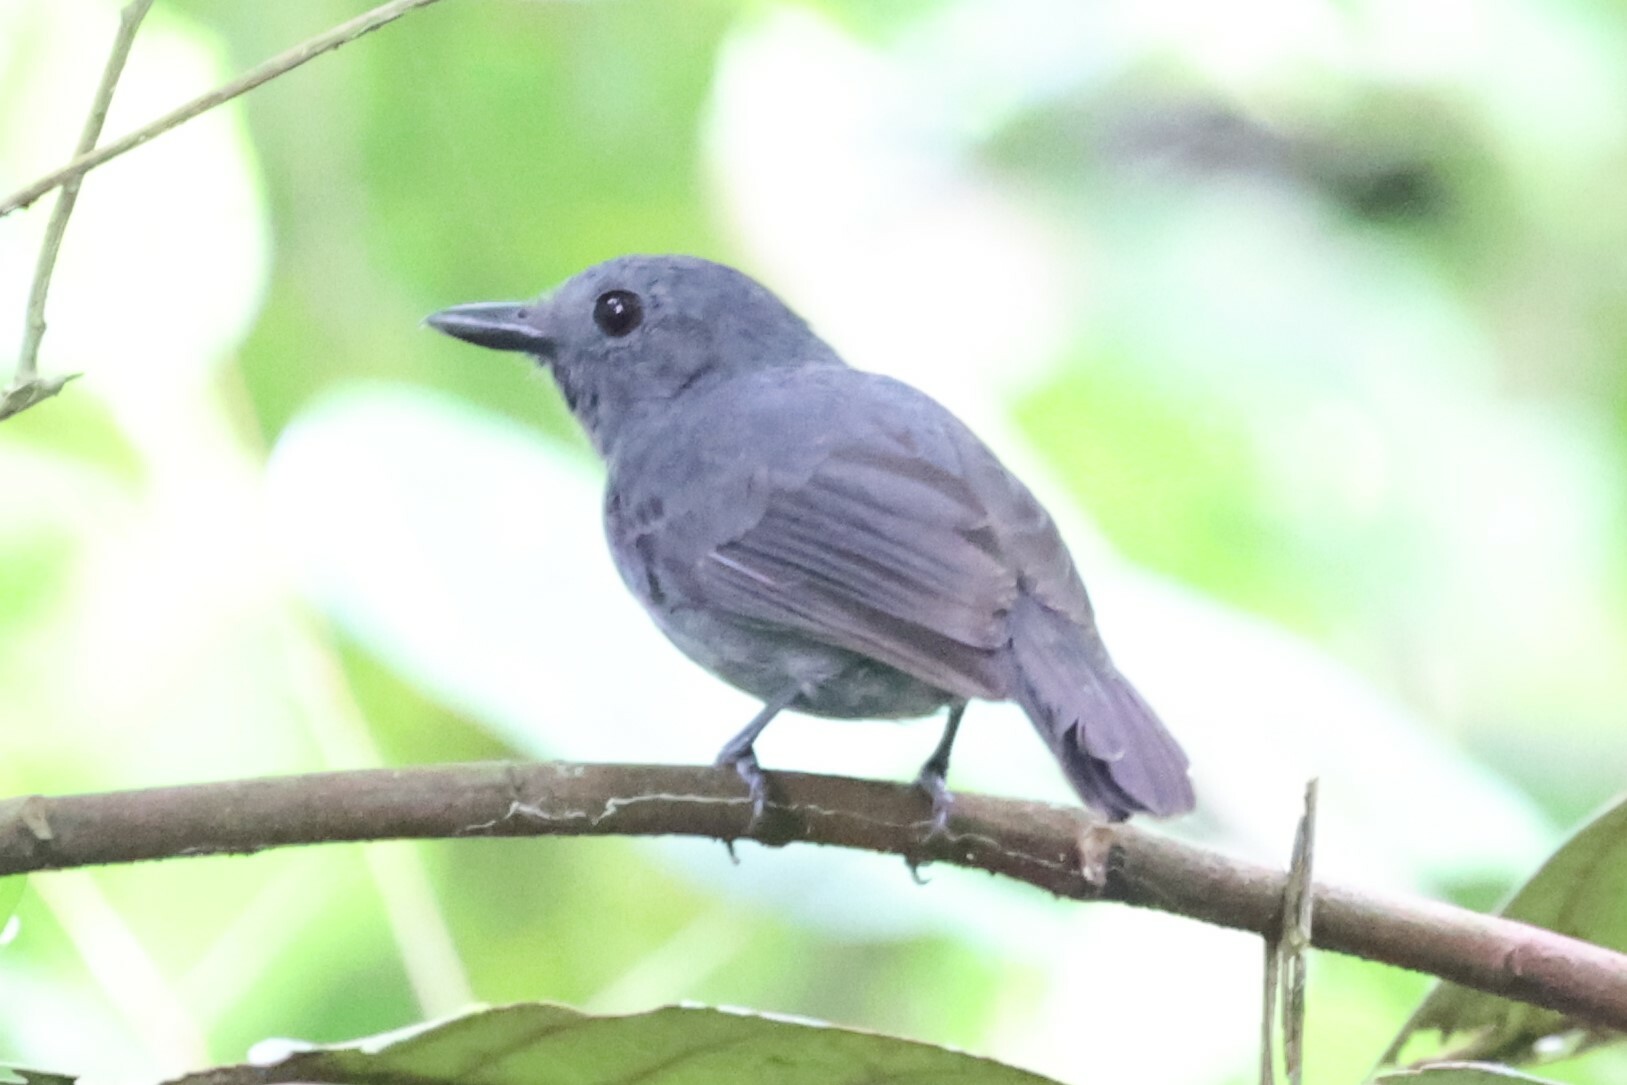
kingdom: Animalia
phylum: Chordata
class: Aves
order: Passeriformes
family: Thamnophilidae
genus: Thamnomanes
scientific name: Thamnomanes ardesiacus
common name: Dusky-throated antshrike
